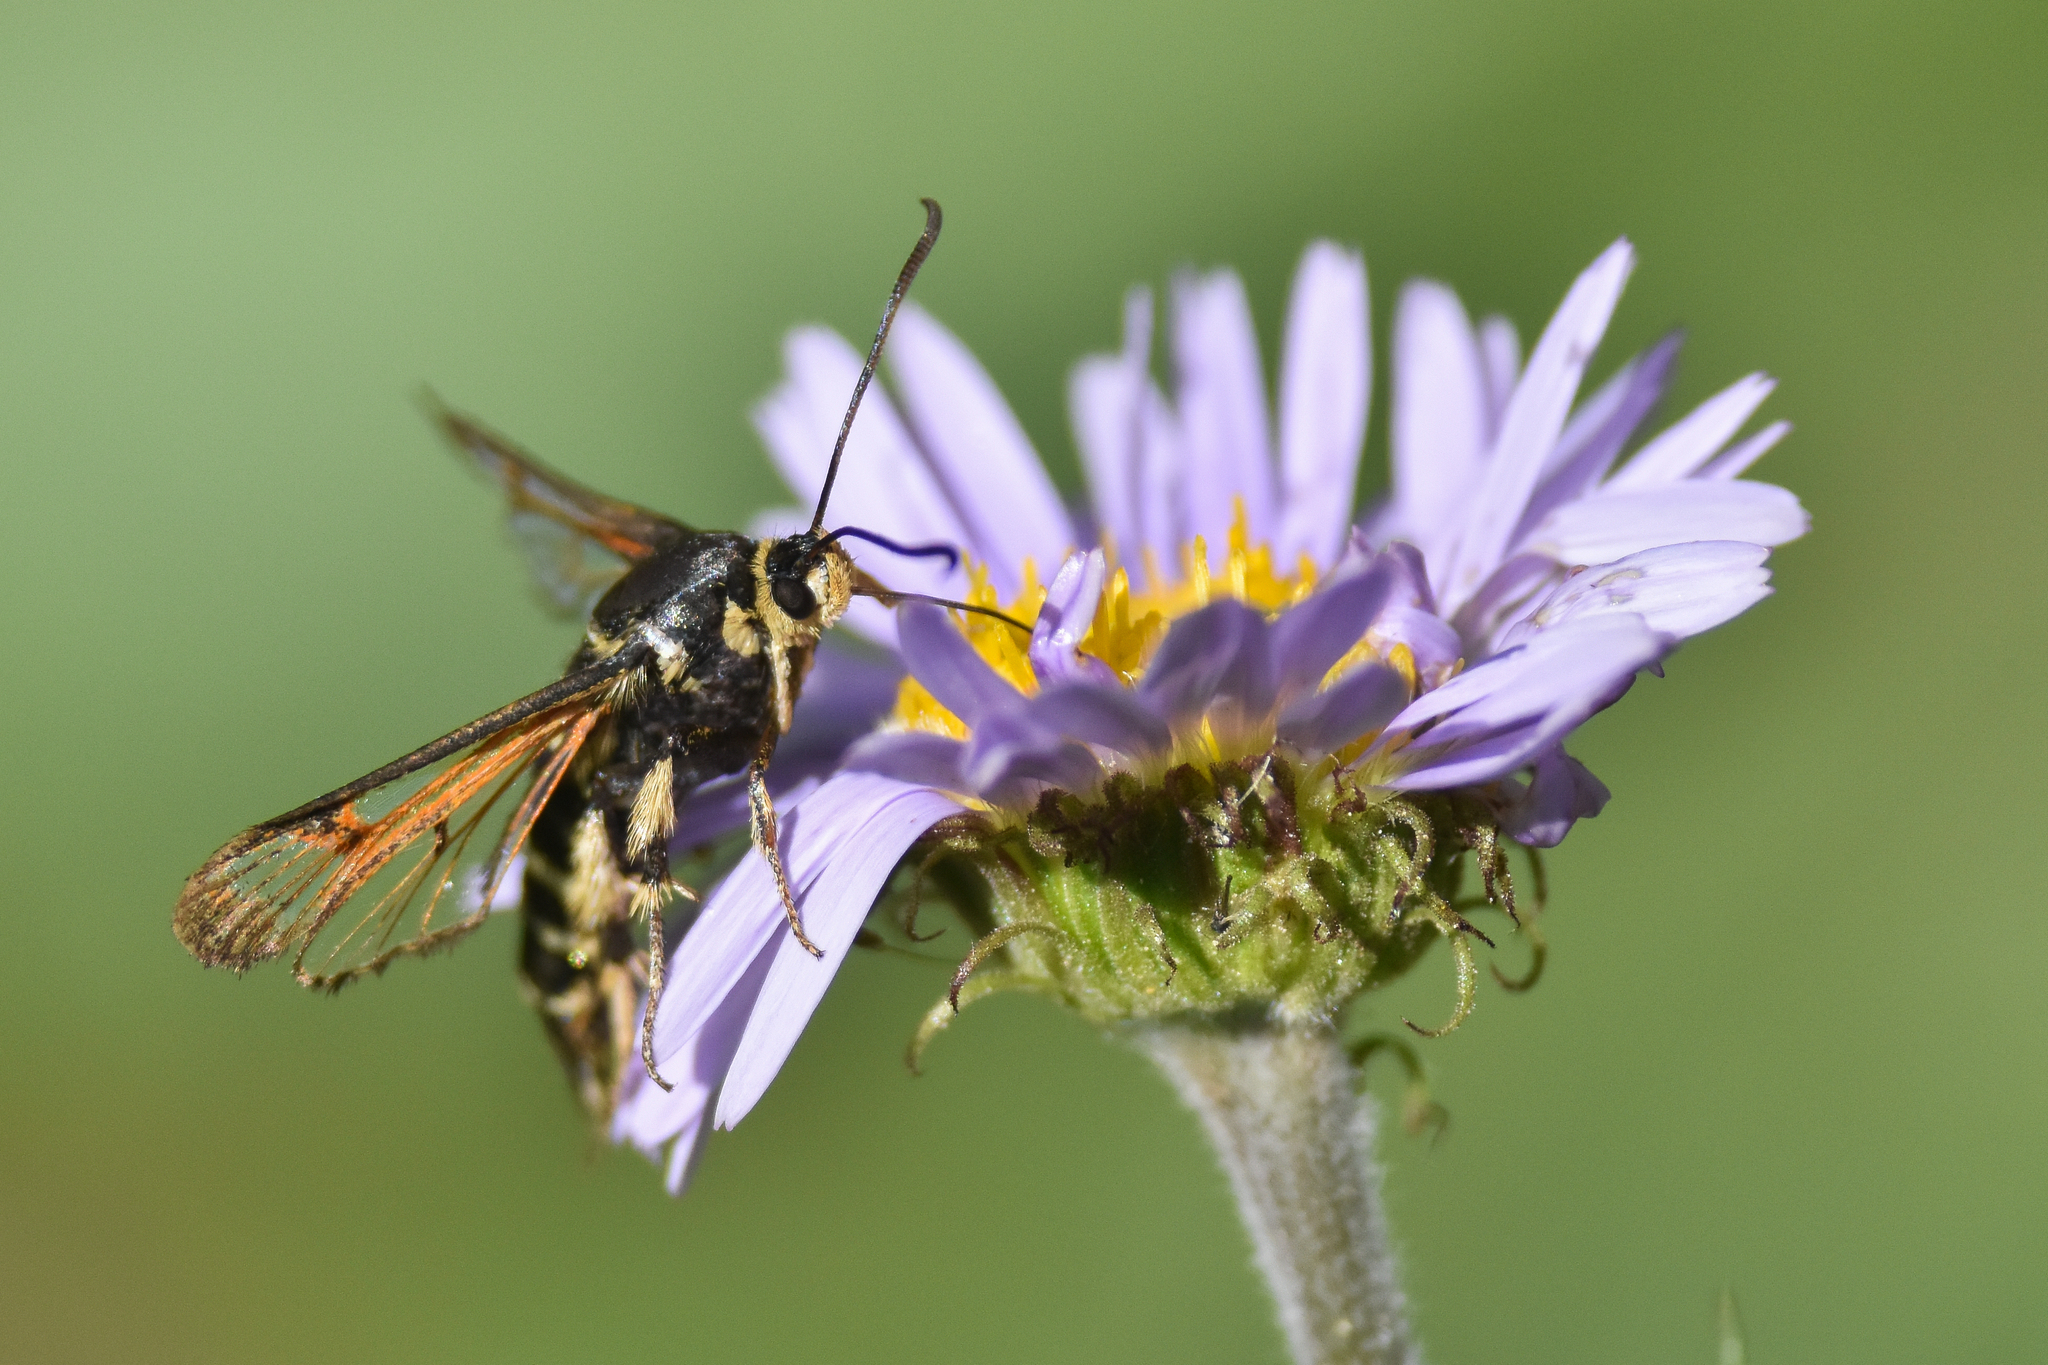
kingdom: Animalia
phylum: Arthropoda
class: Insecta
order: Lepidoptera
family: Sesiidae
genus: Albuna
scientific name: Albuna pyramidalis
